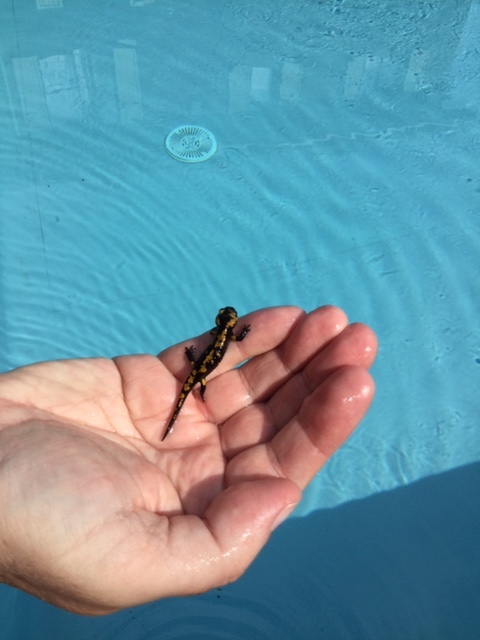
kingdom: Animalia
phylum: Chordata
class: Amphibia
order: Caudata
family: Salamandridae
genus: Salamandra
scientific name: Salamandra salamandra
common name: Fire salamander
